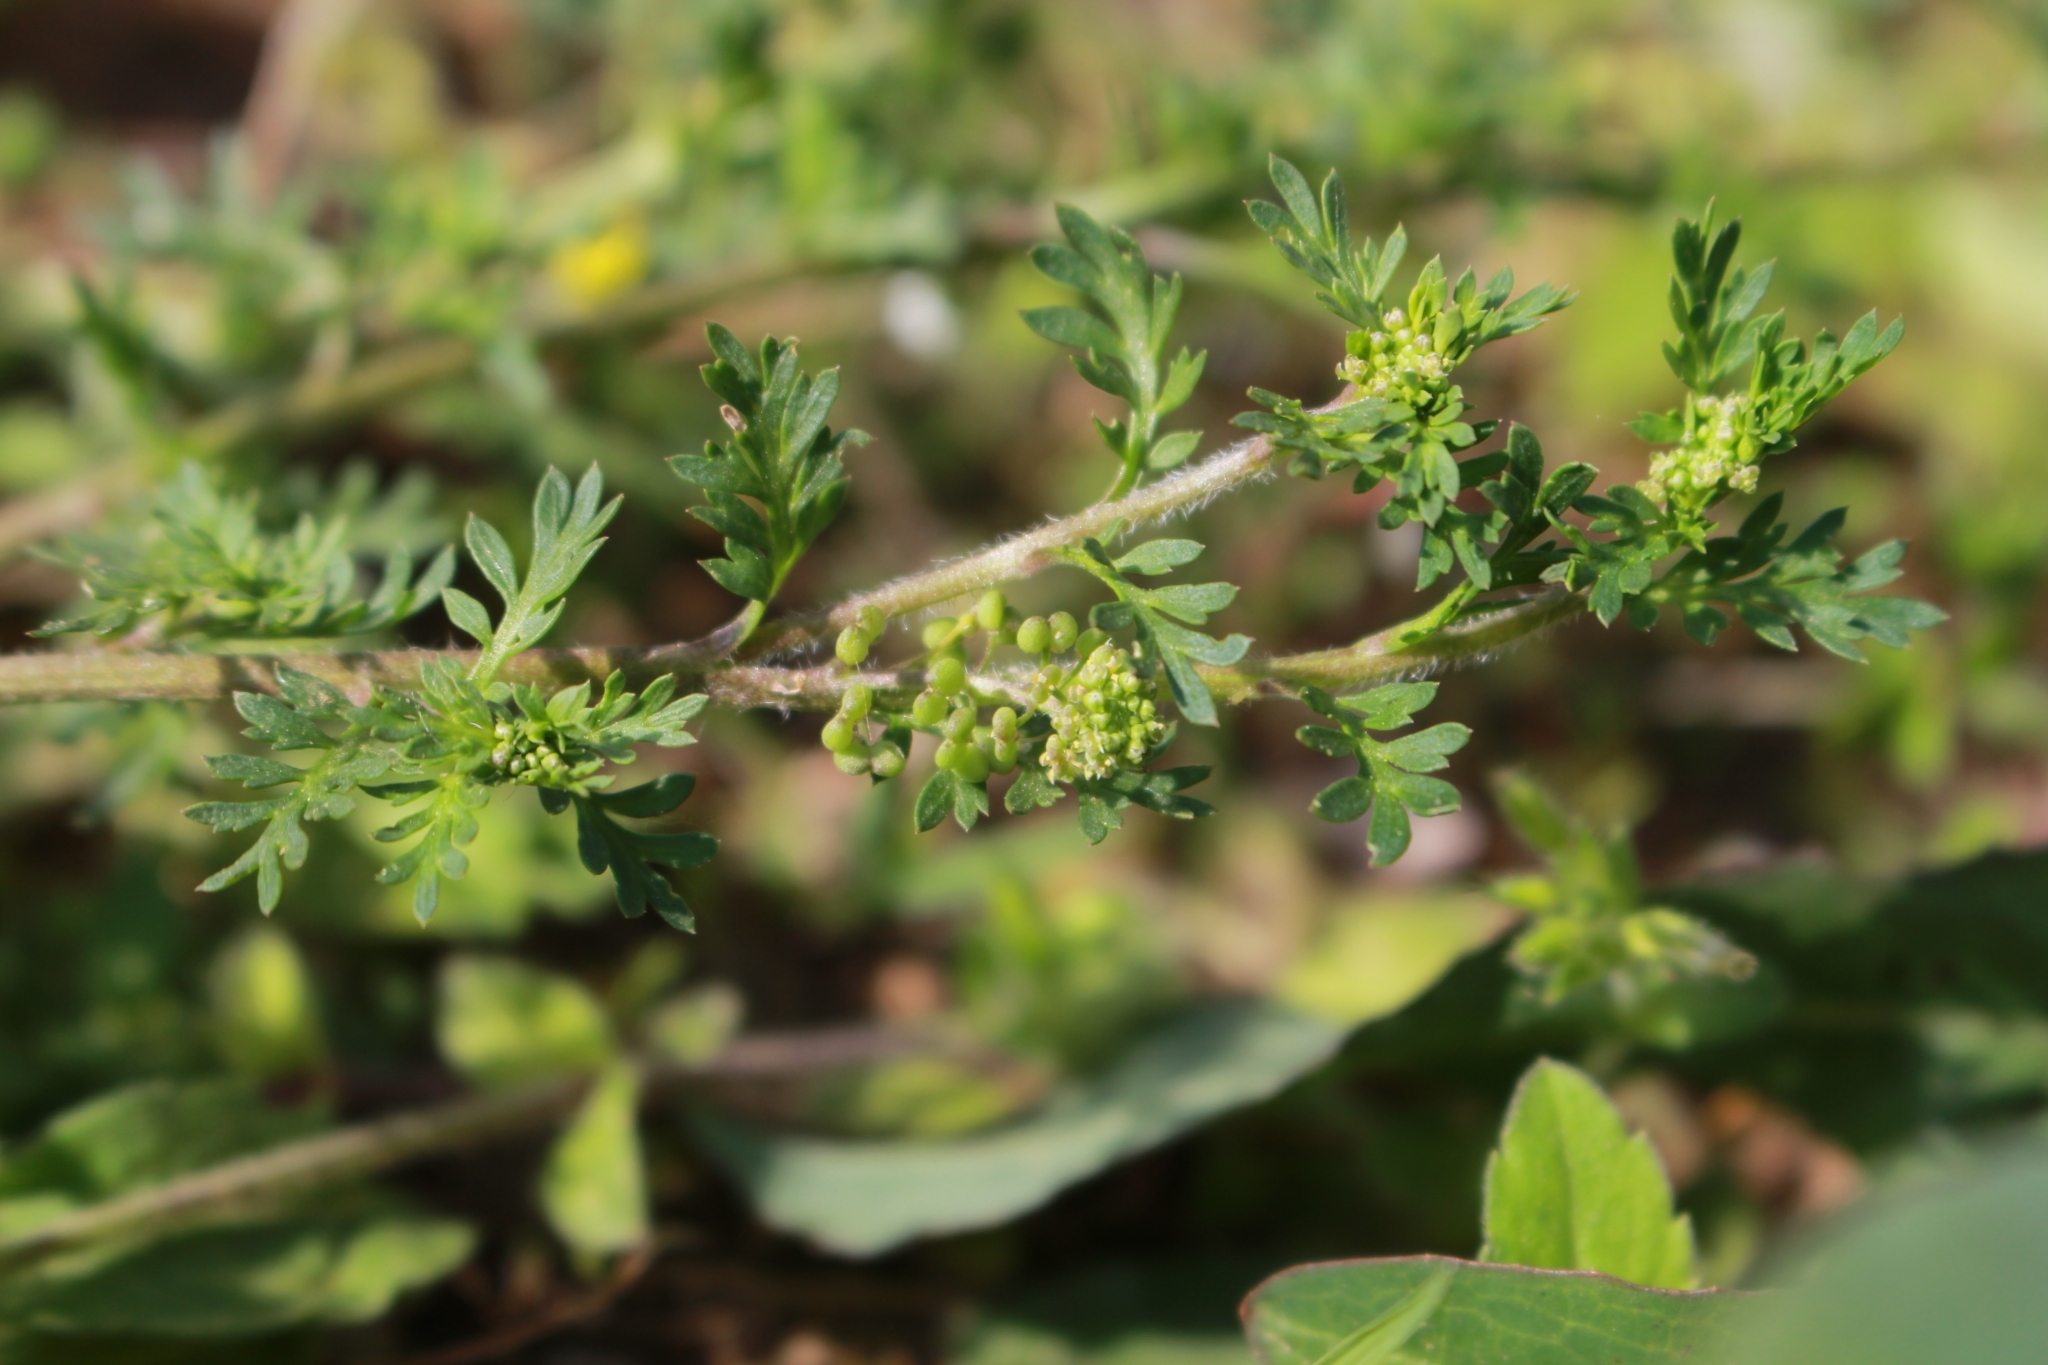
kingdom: Plantae
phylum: Tracheophyta
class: Magnoliopsida
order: Brassicales
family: Brassicaceae
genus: Lepidium
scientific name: Lepidium didymum
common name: Lesser swinecress
